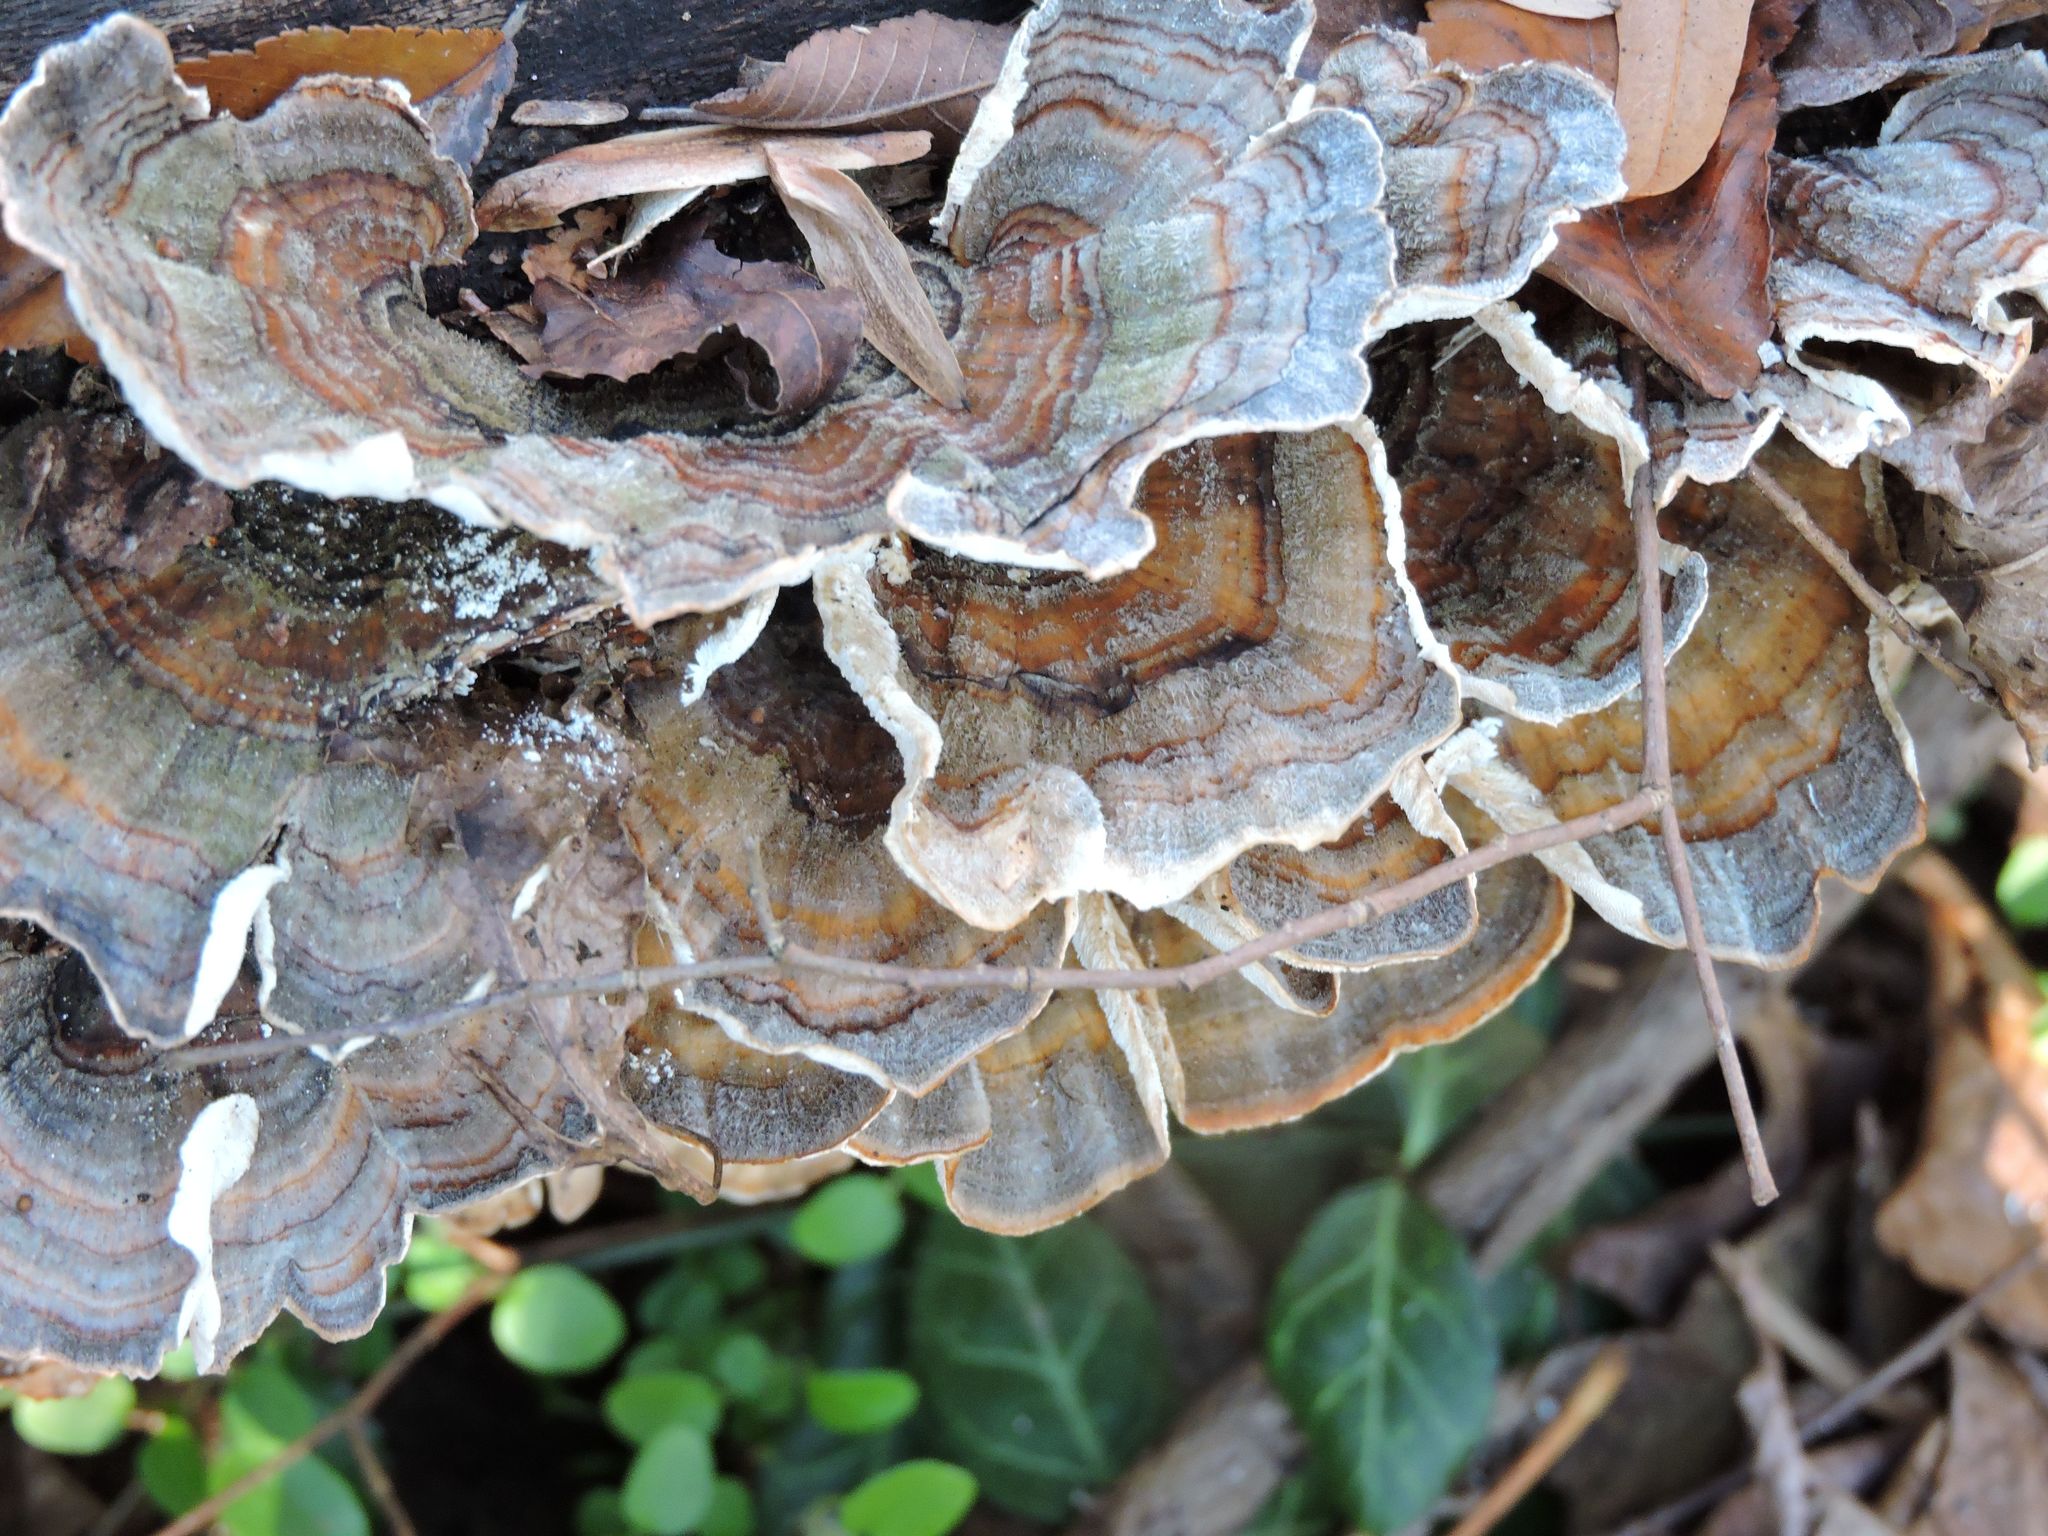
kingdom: Fungi
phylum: Basidiomycota
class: Agaricomycetes
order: Polyporales
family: Polyporaceae
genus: Trametes
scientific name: Trametes versicolor
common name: Turkeytail
